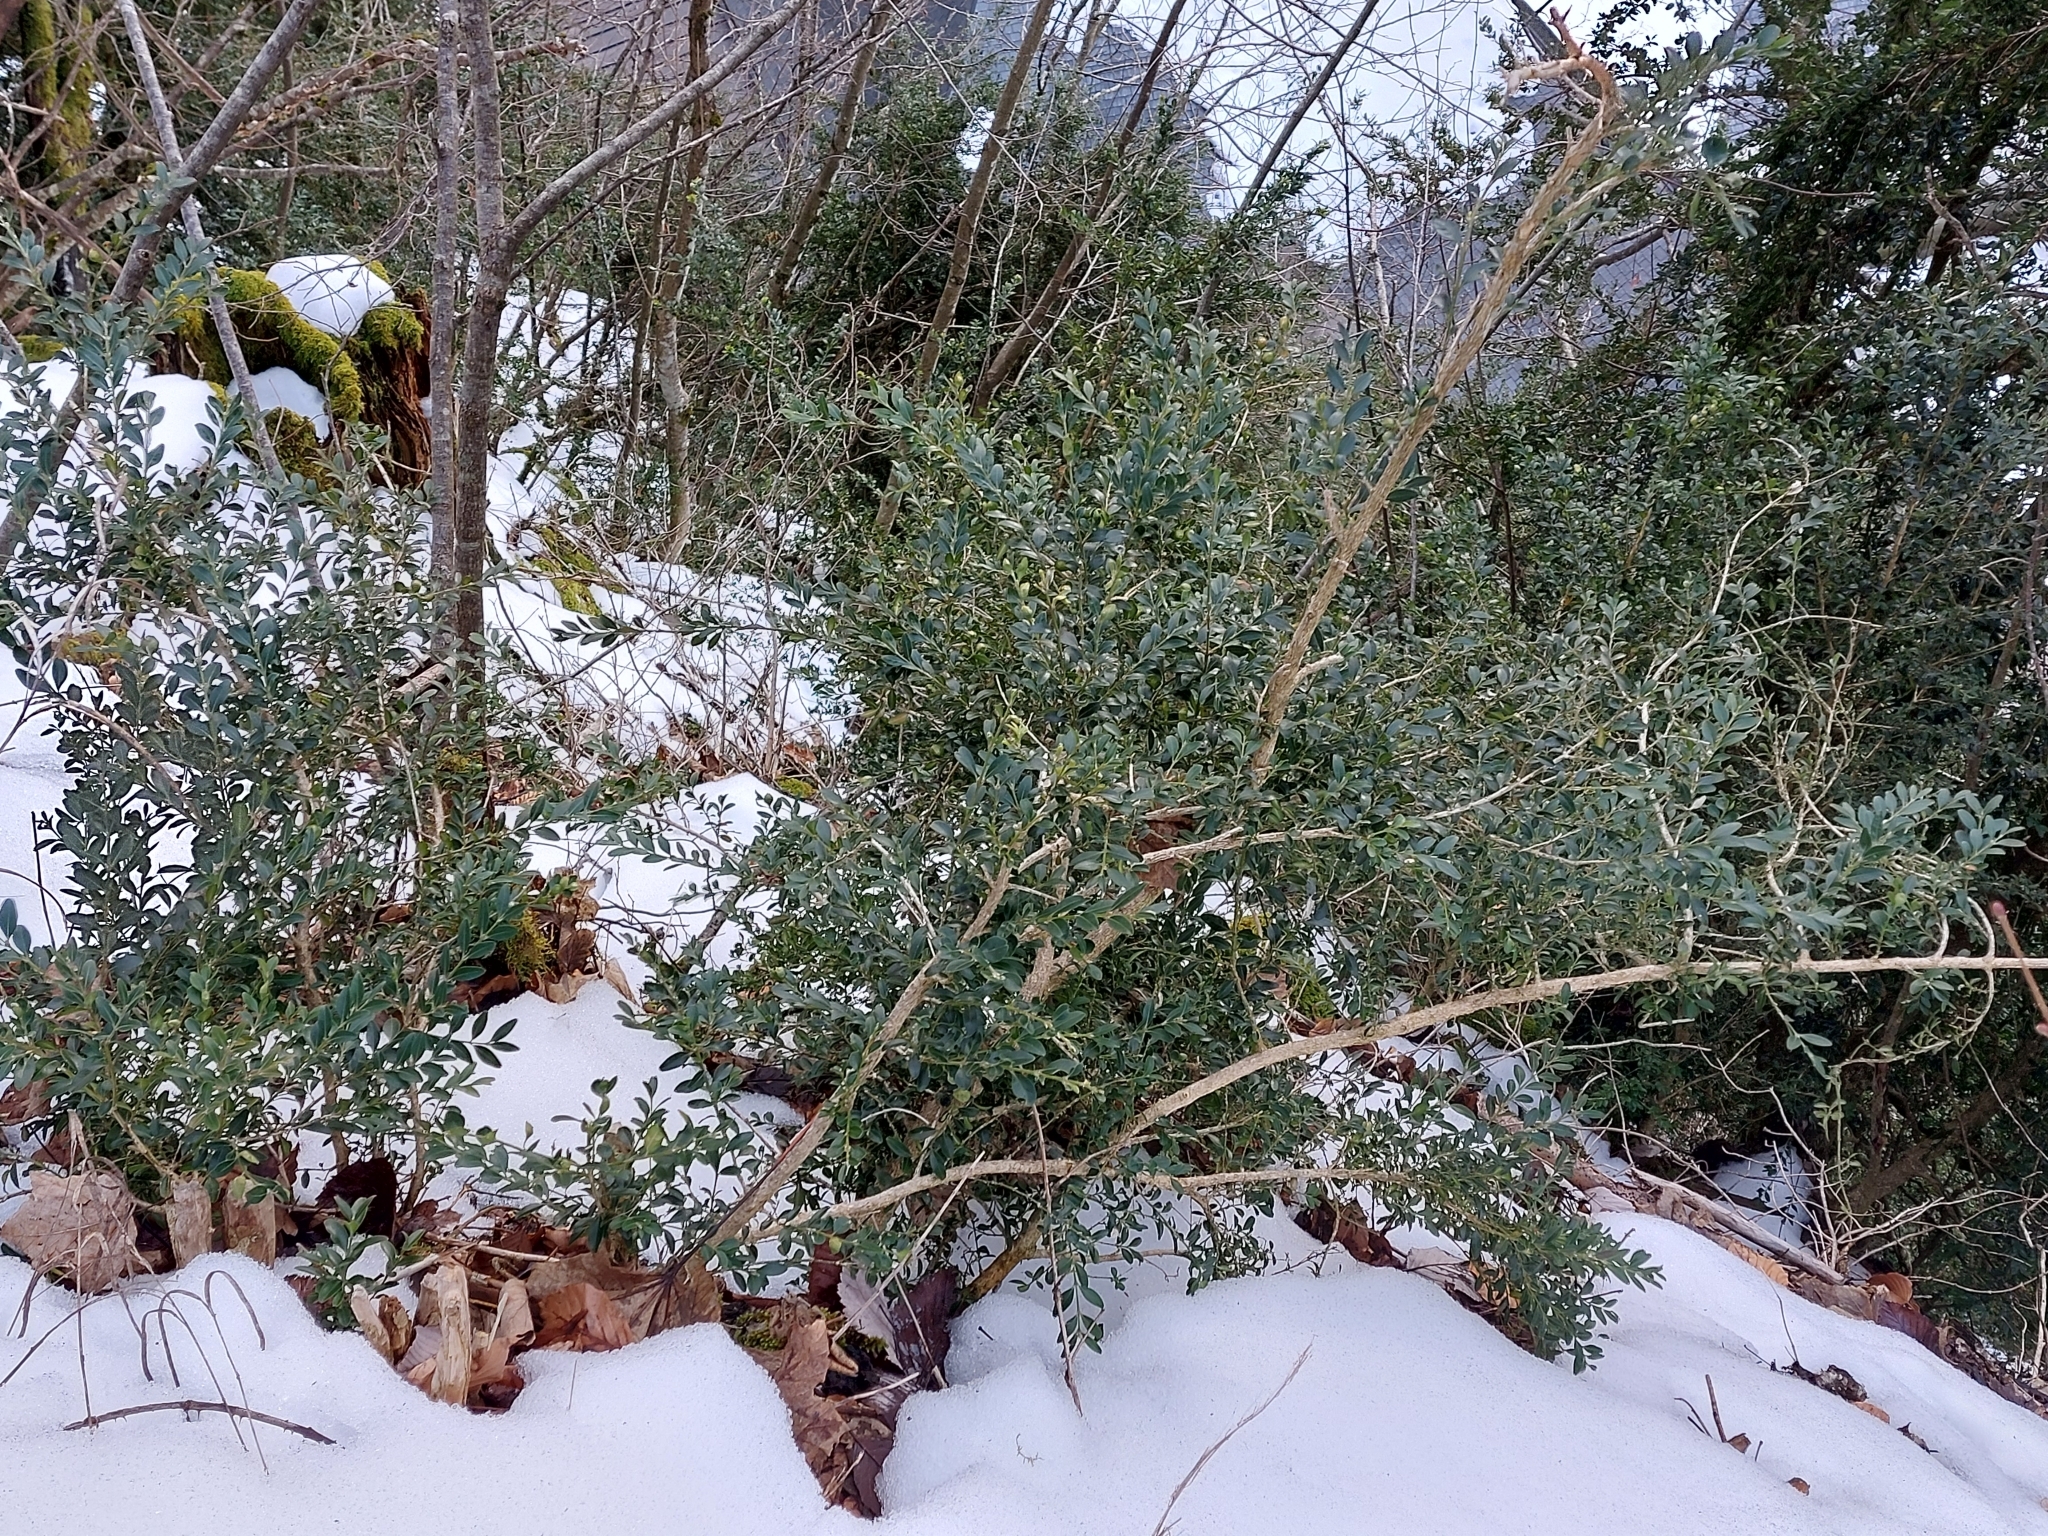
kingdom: Plantae
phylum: Tracheophyta
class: Magnoliopsida
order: Buxales
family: Buxaceae
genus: Buxus
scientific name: Buxus sempervirens
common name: Box
